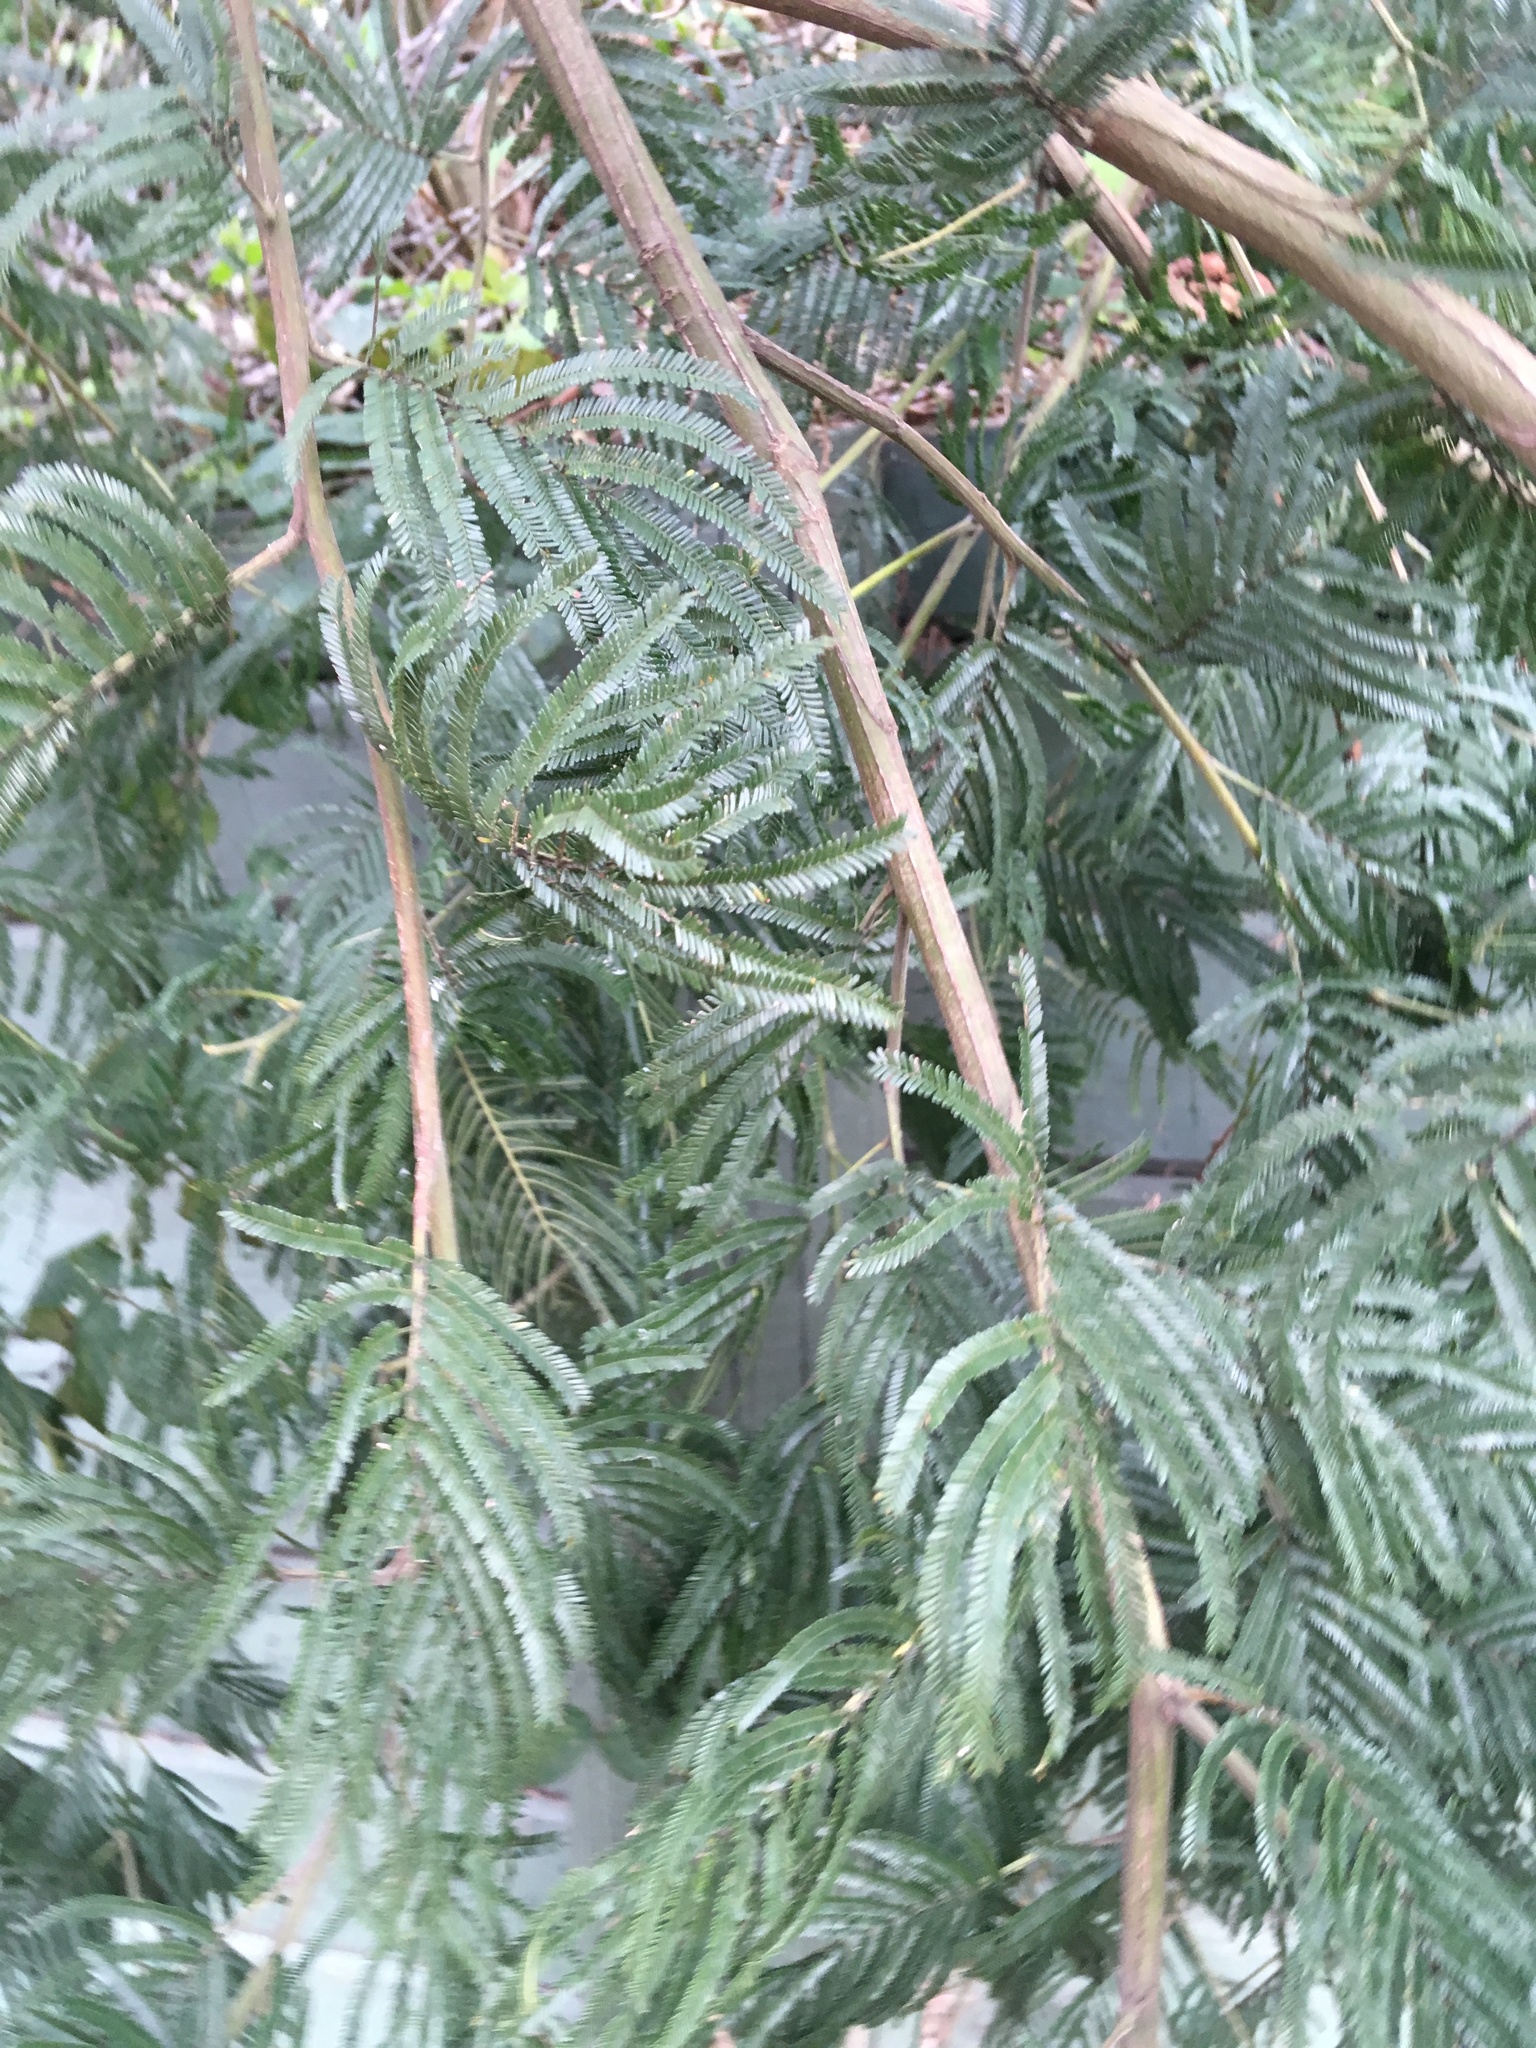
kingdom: Plantae
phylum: Tracheophyta
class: Magnoliopsida
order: Fabales
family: Fabaceae
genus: Acacia
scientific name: Acacia mearnsii
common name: Black wattle
